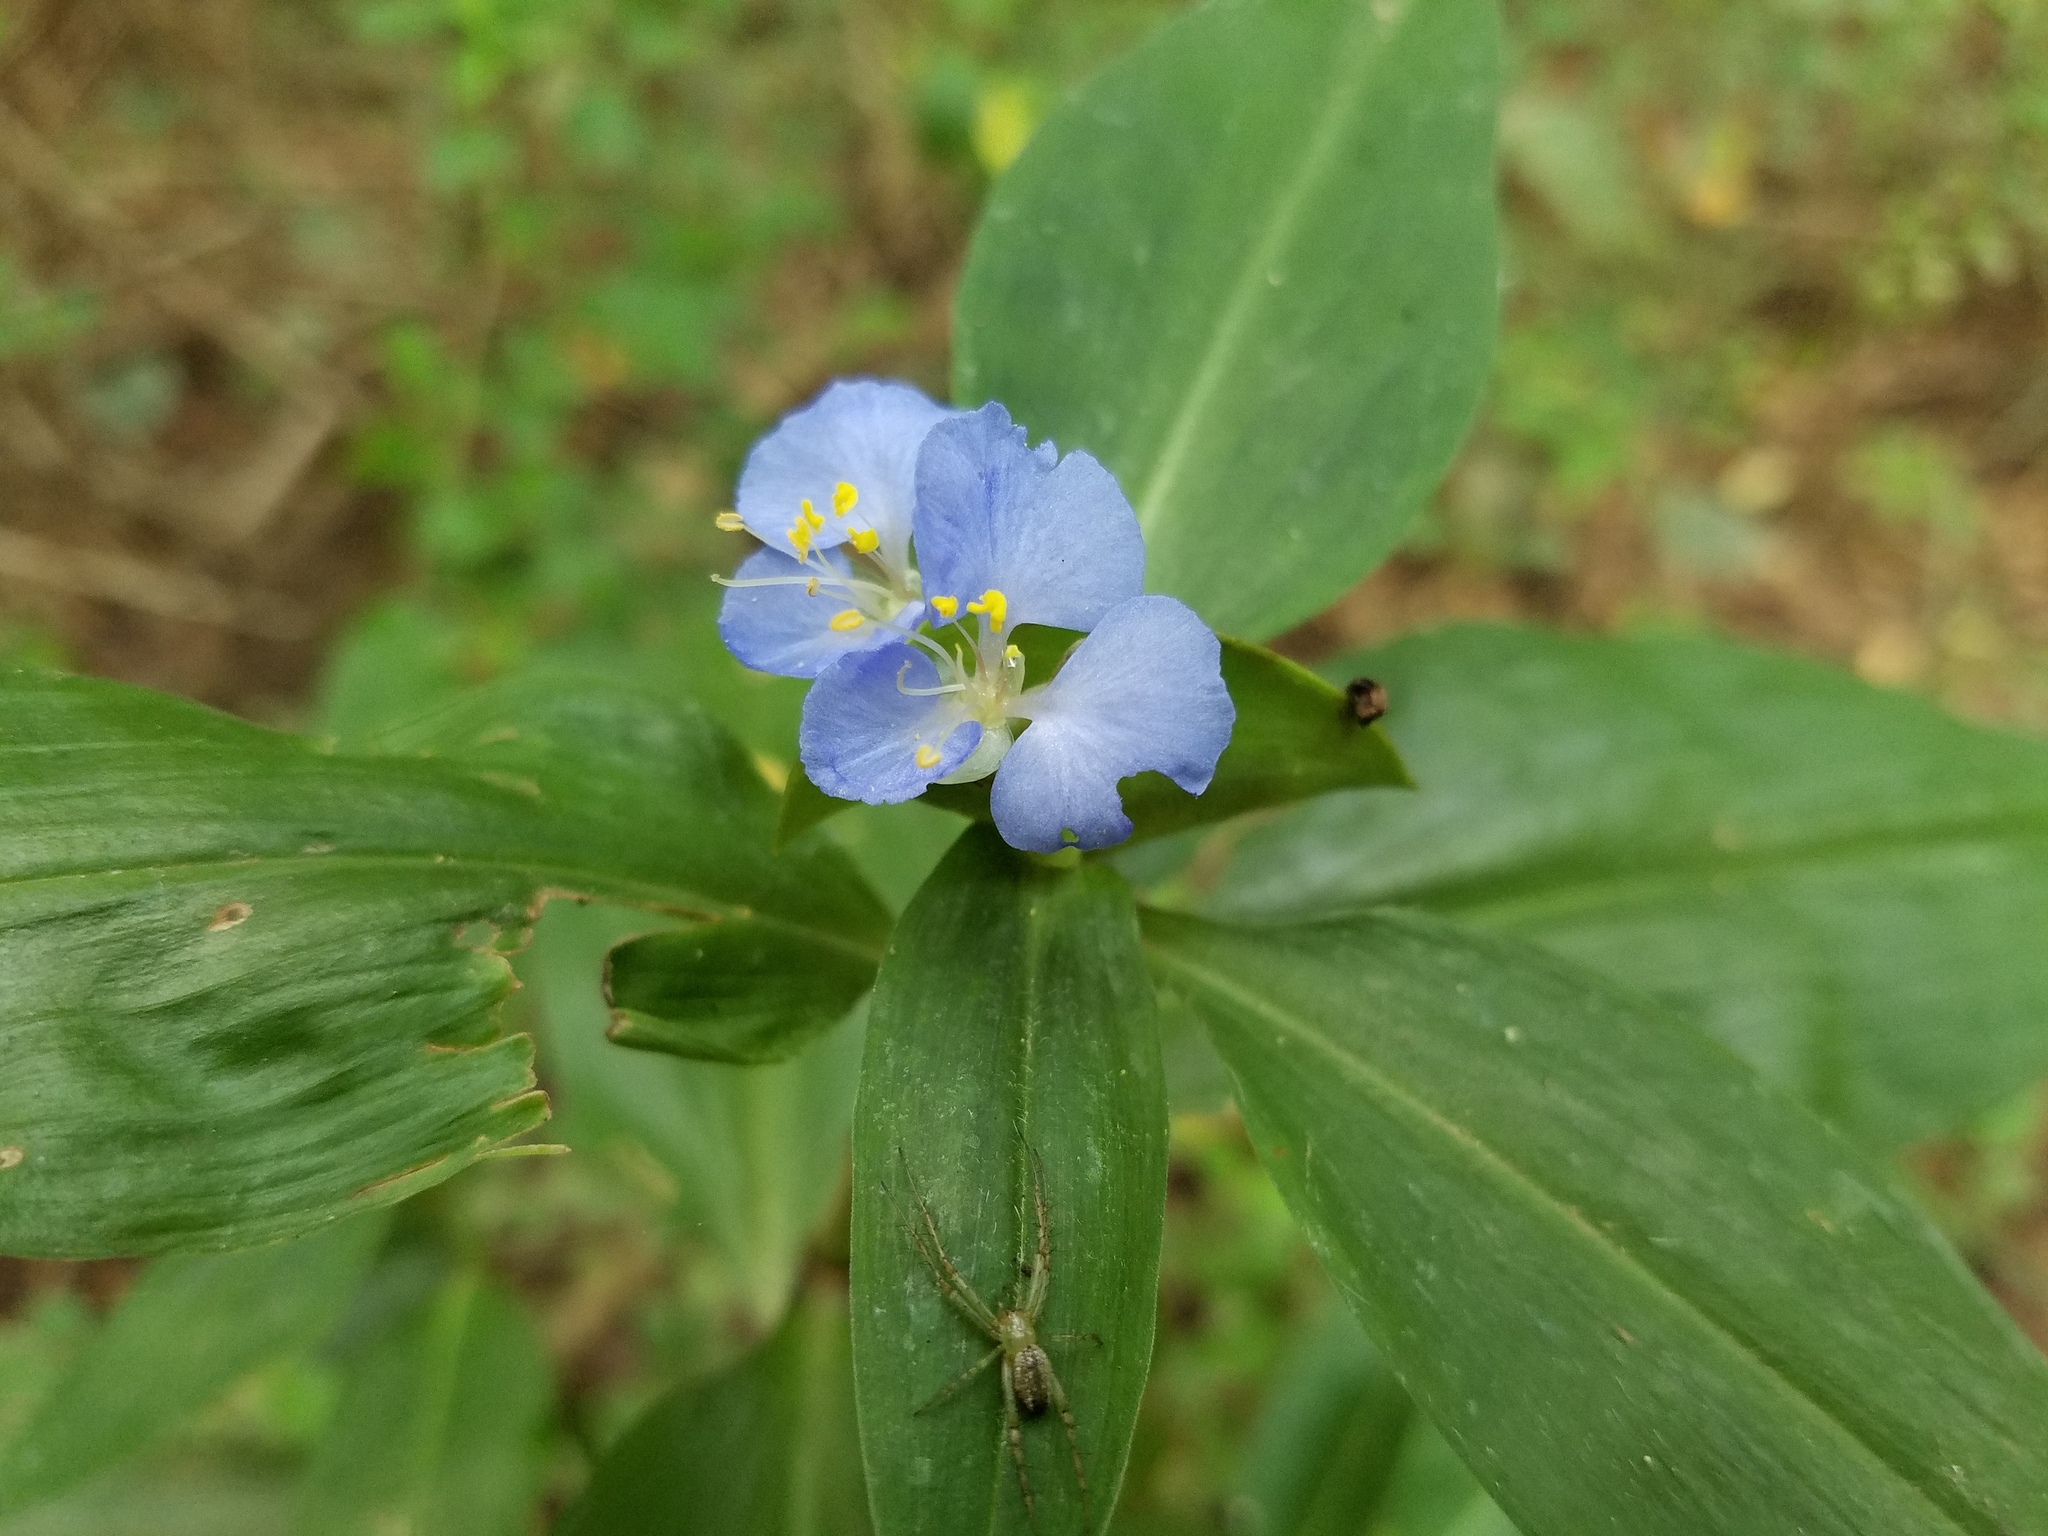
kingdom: Plantae
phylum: Tracheophyta
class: Liliopsida
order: Commelinales
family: Commelinaceae
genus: Commelina
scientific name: Commelina virginica
